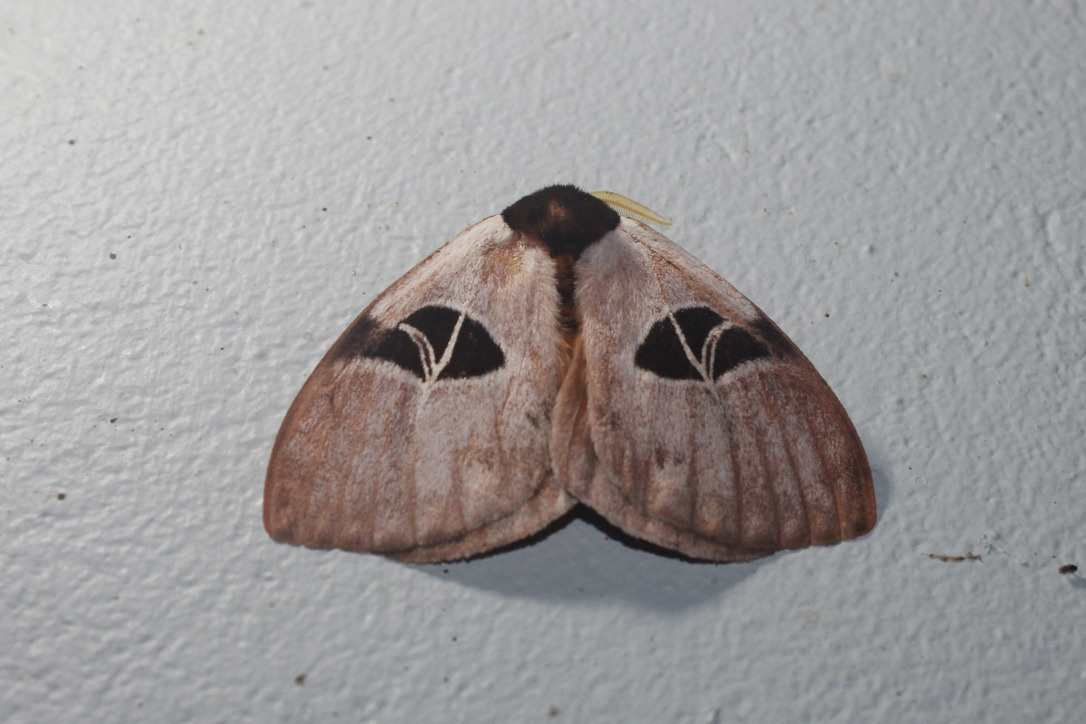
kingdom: Animalia
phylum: Arthropoda
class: Insecta
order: Lepidoptera
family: Saturniidae
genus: Dirphia
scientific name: Dirphia tarquinia
